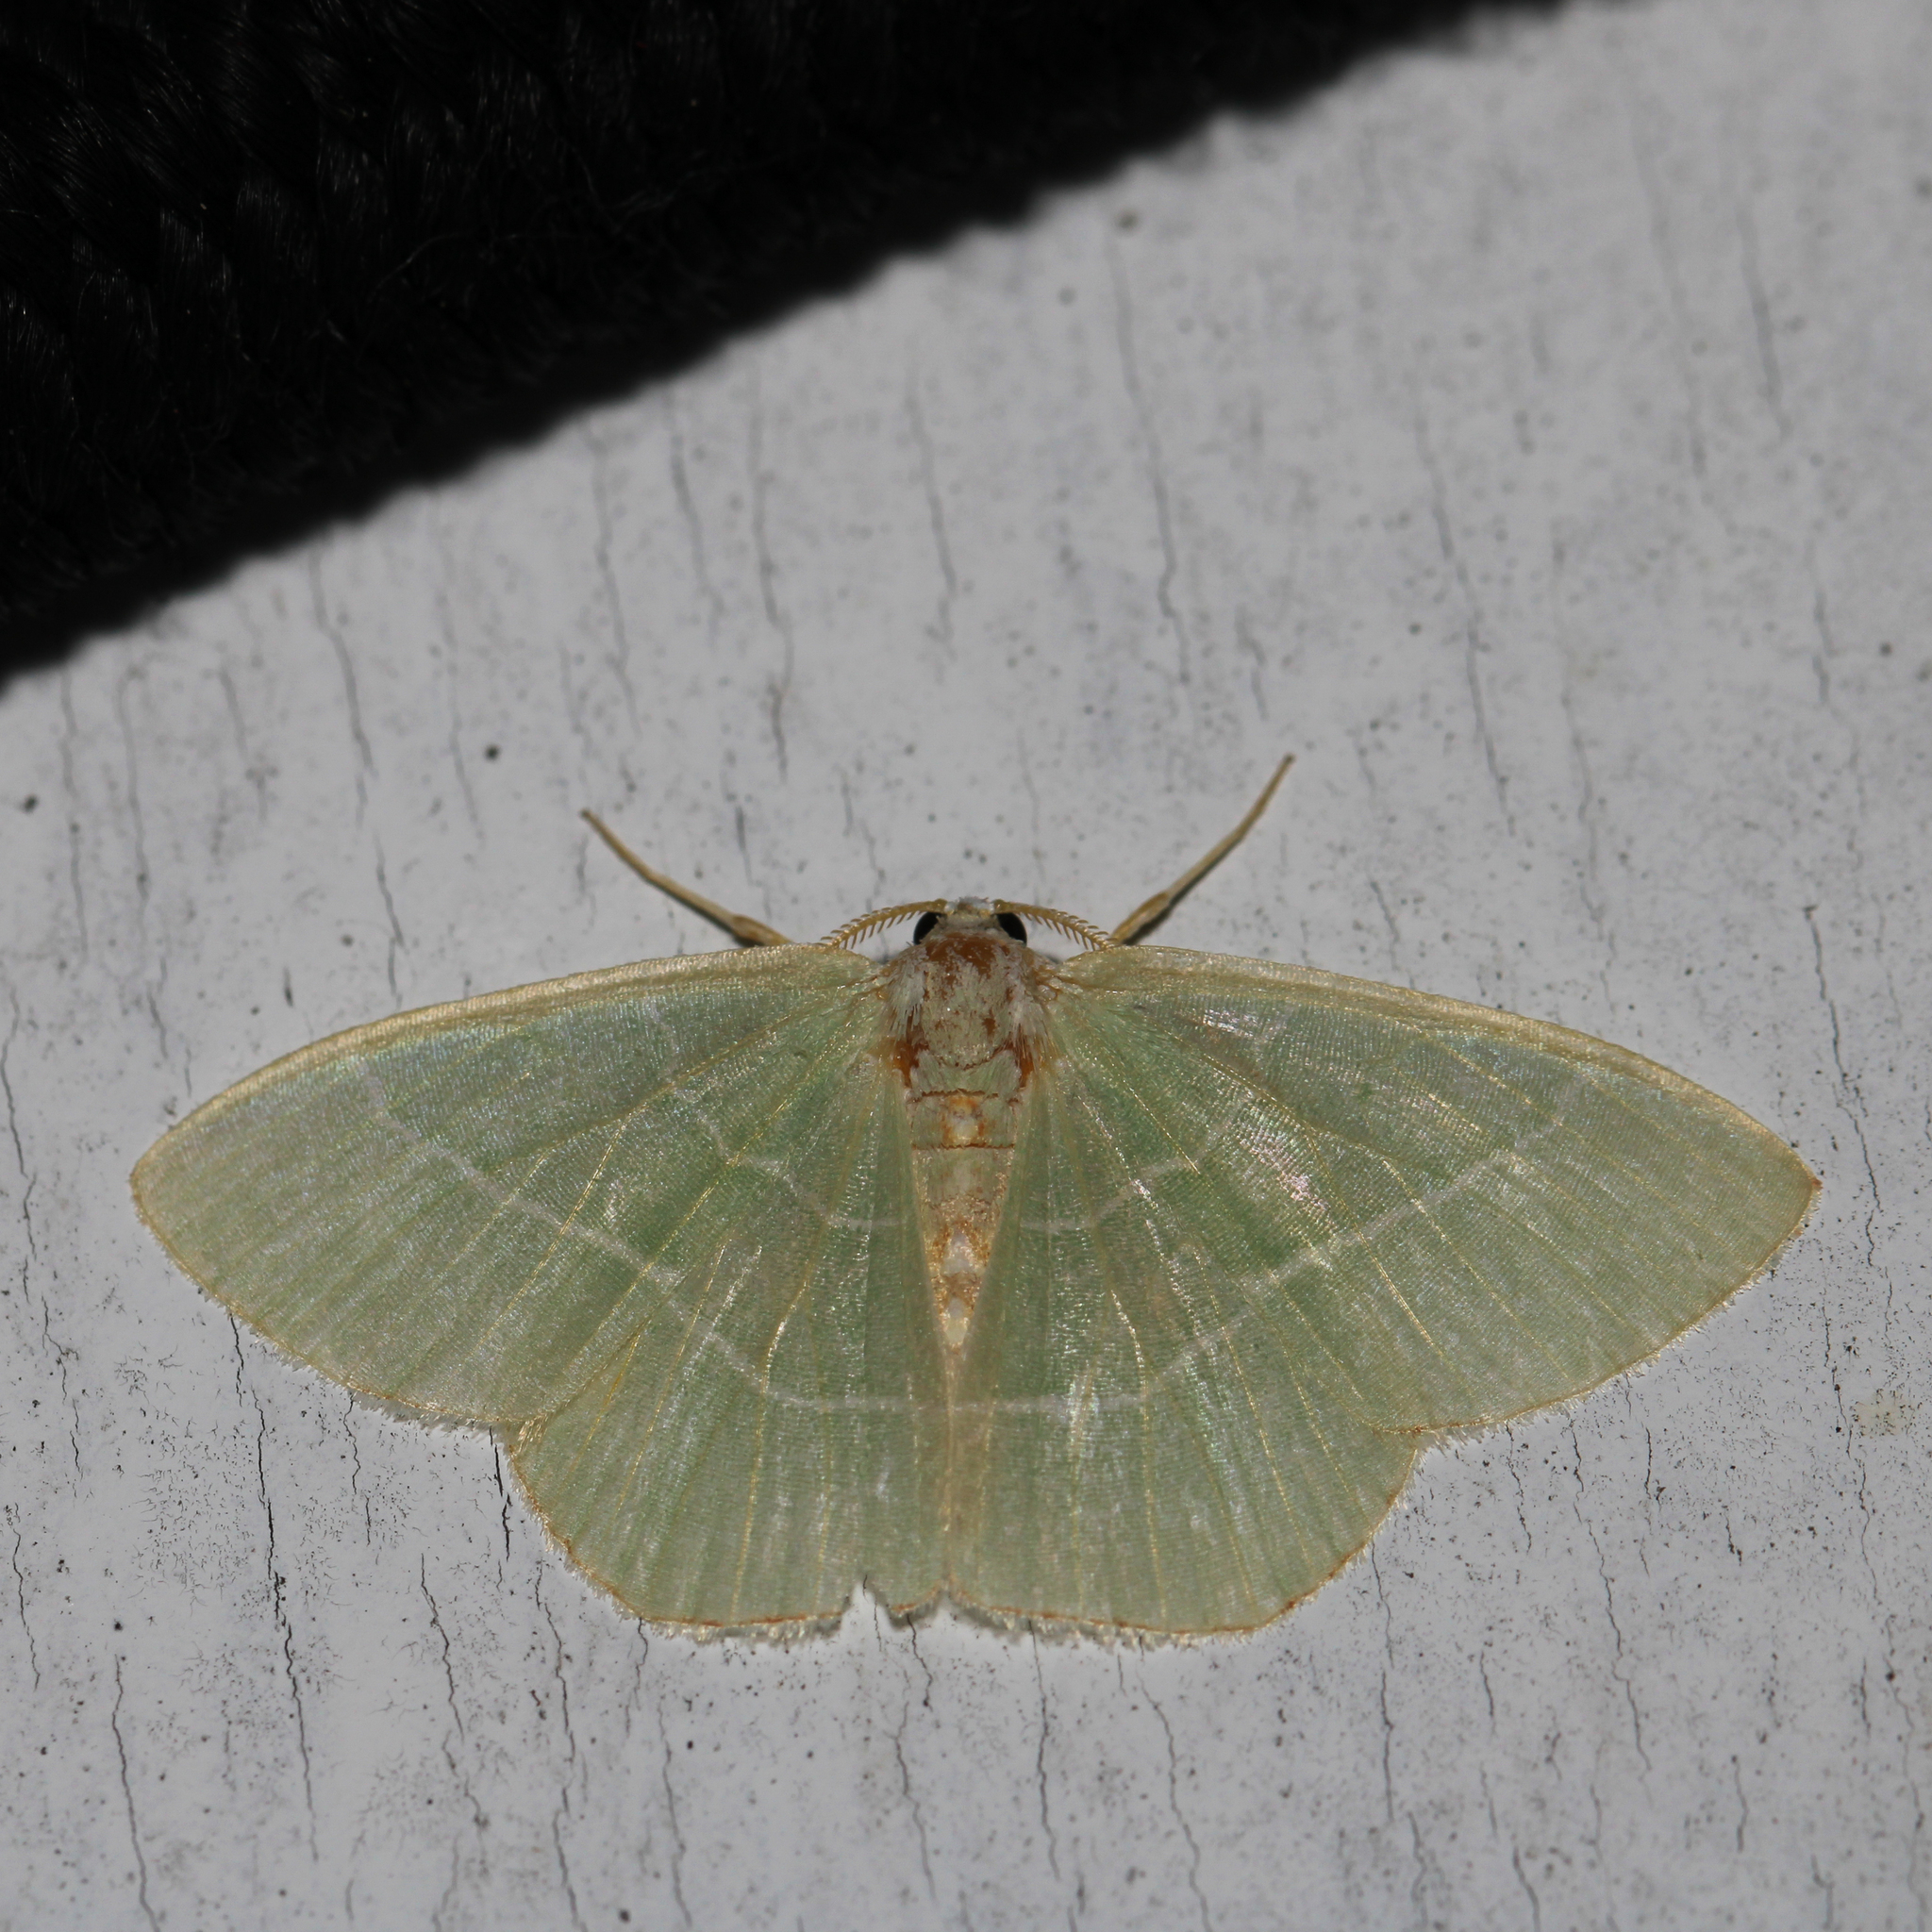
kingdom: Animalia
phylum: Arthropoda
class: Insecta
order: Lepidoptera
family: Geometridae
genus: Nemoria
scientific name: Nemoria bistriaria
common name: Red-fringed emerald
